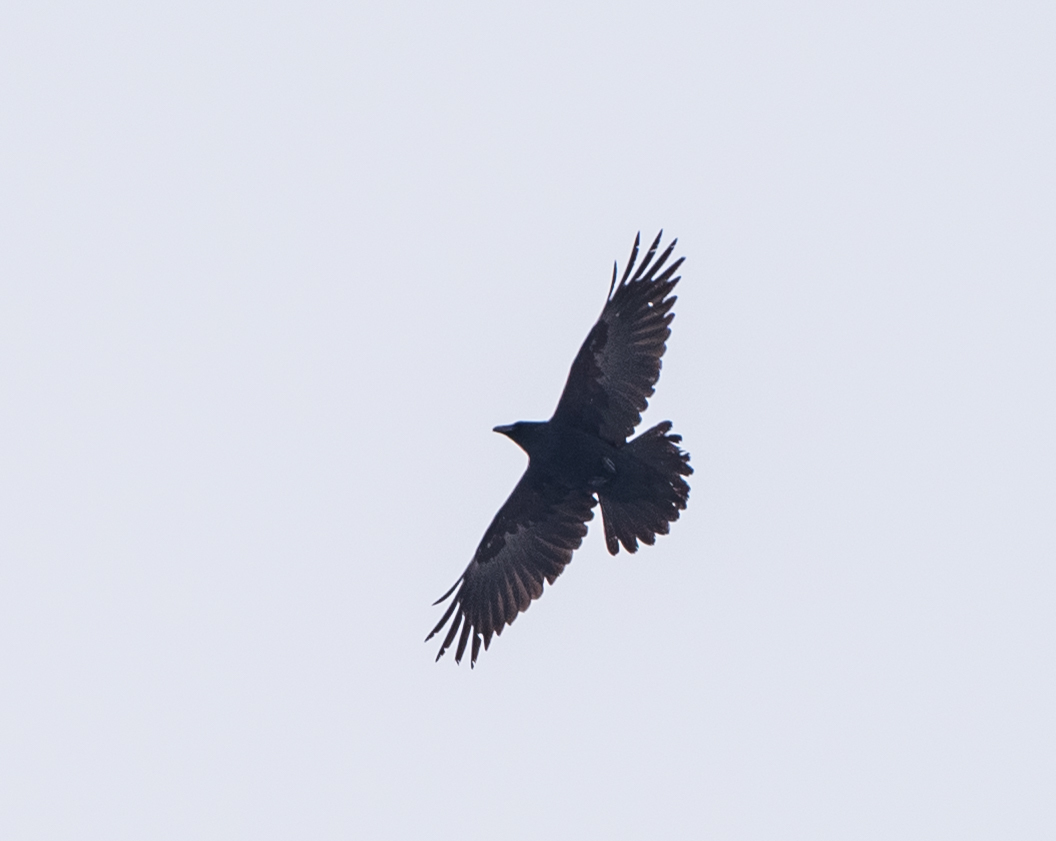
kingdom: Animalia
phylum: Chordata
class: Aves
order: Passeriformes
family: Corvidae
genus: Corvus
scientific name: Corvus corax
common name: Common raven
